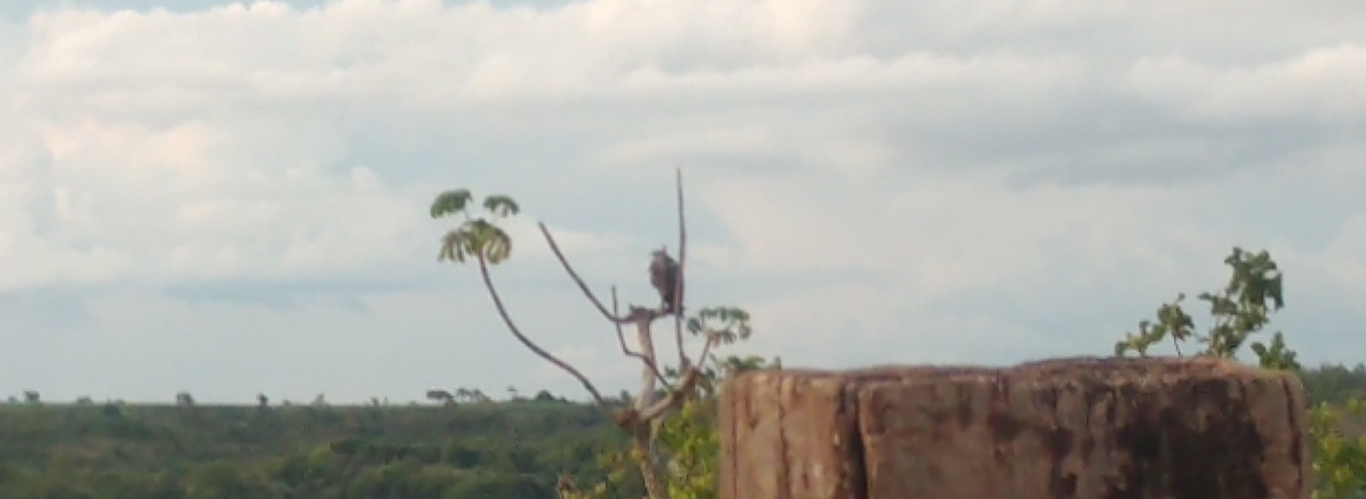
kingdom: Animalia
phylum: Chordata
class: Aves
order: Accipitriformes
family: Accipitridae
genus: Harpyhaliaetus
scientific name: Harpyhaliaetus coronatus
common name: Crowned solitary eagle
